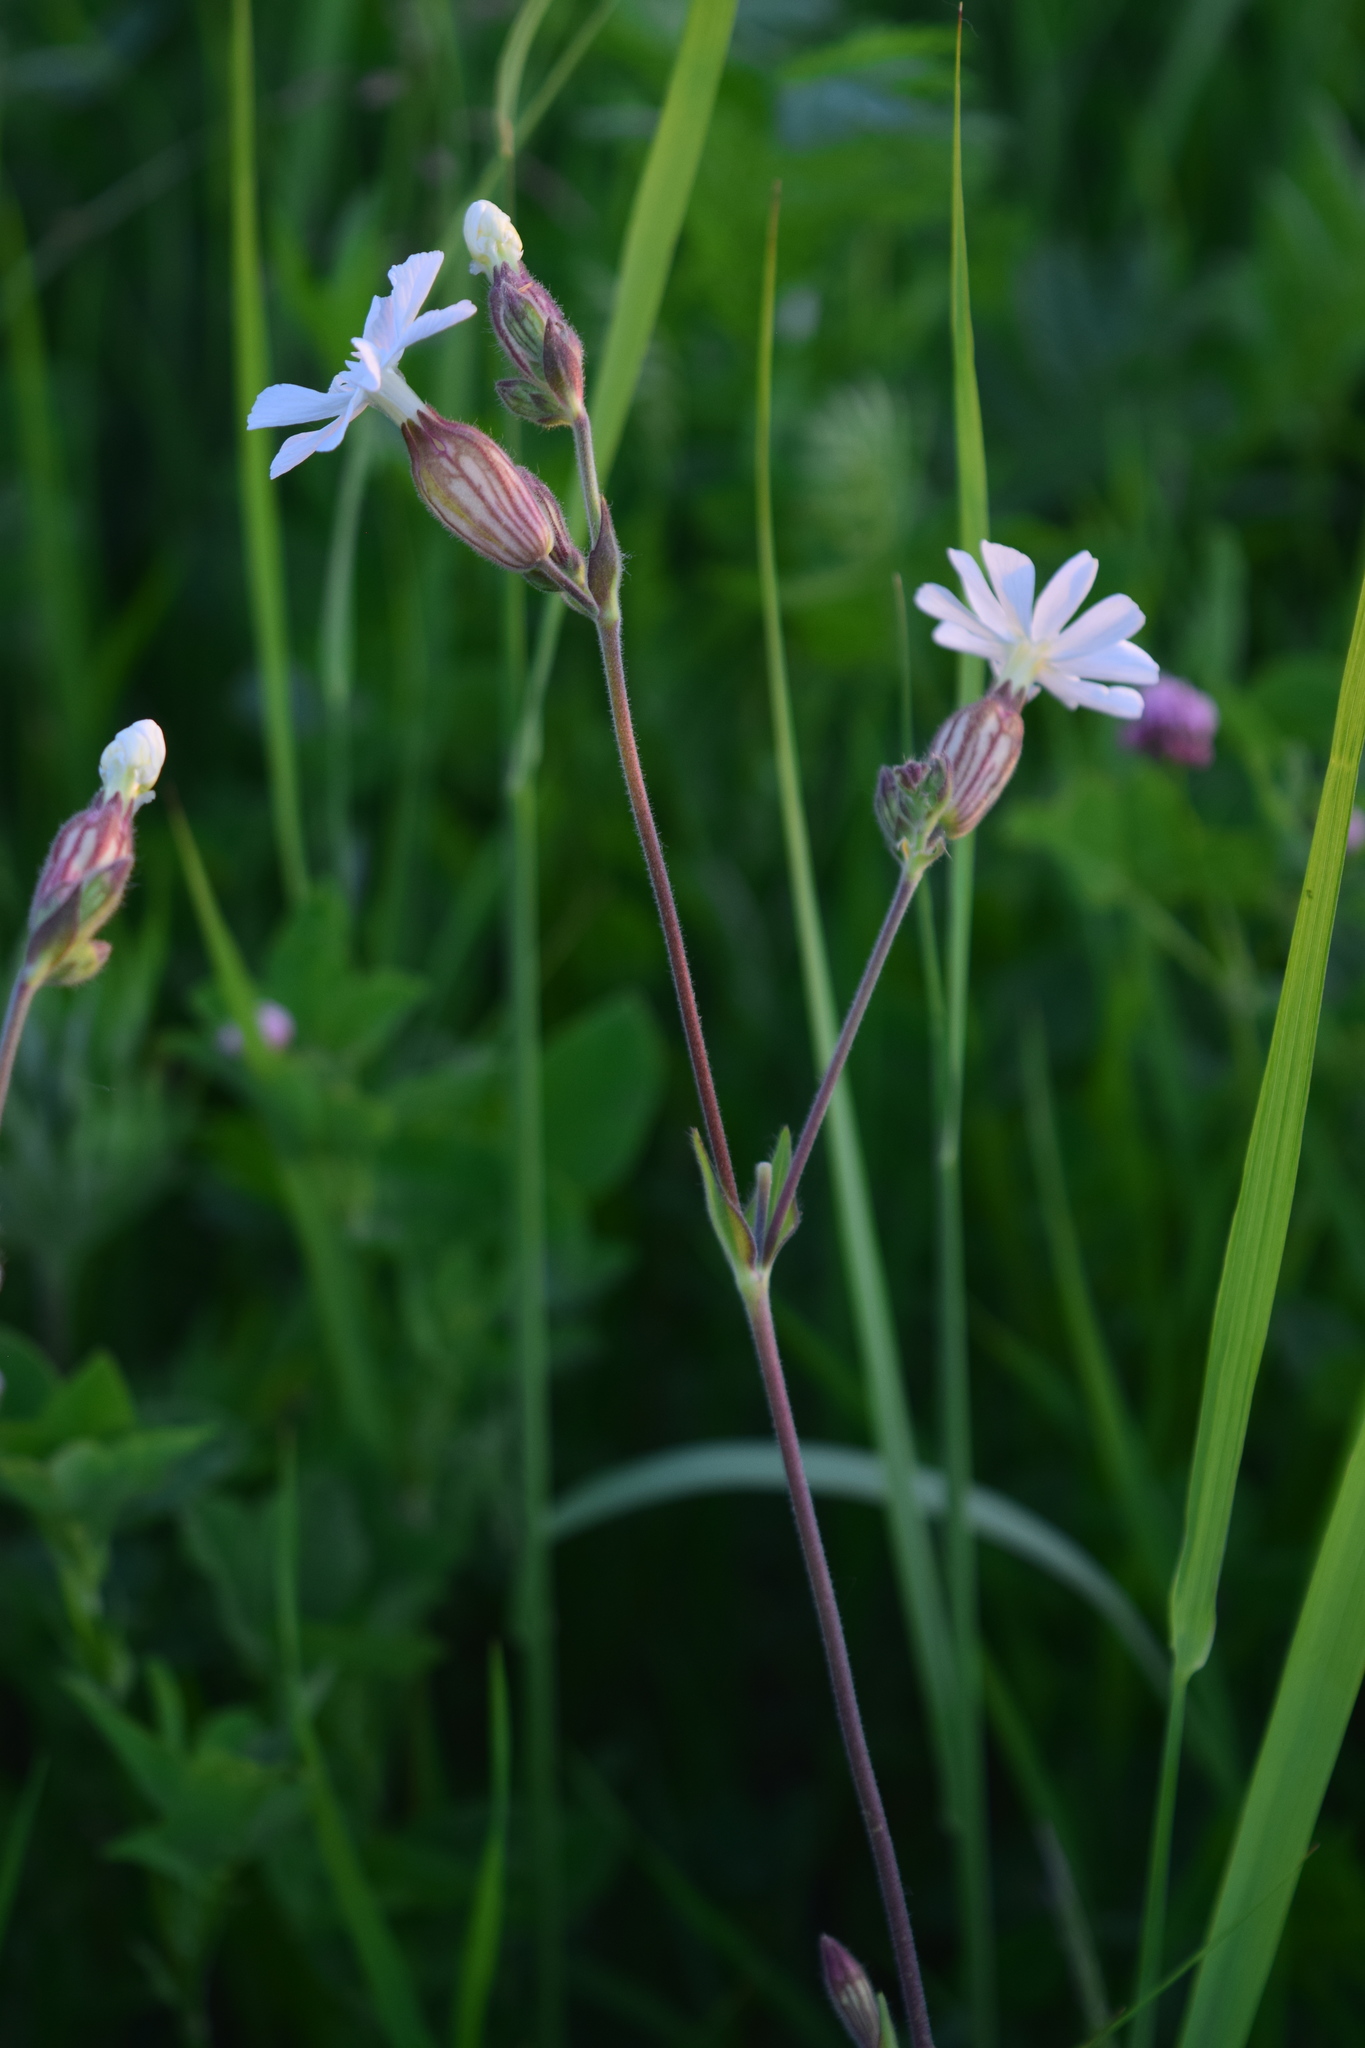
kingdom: Plantae
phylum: Tracheophyta
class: Magnoliopsida
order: Caryophyllales
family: Caryophyllaceae
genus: Silene
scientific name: Silene latifolia
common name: White campion
